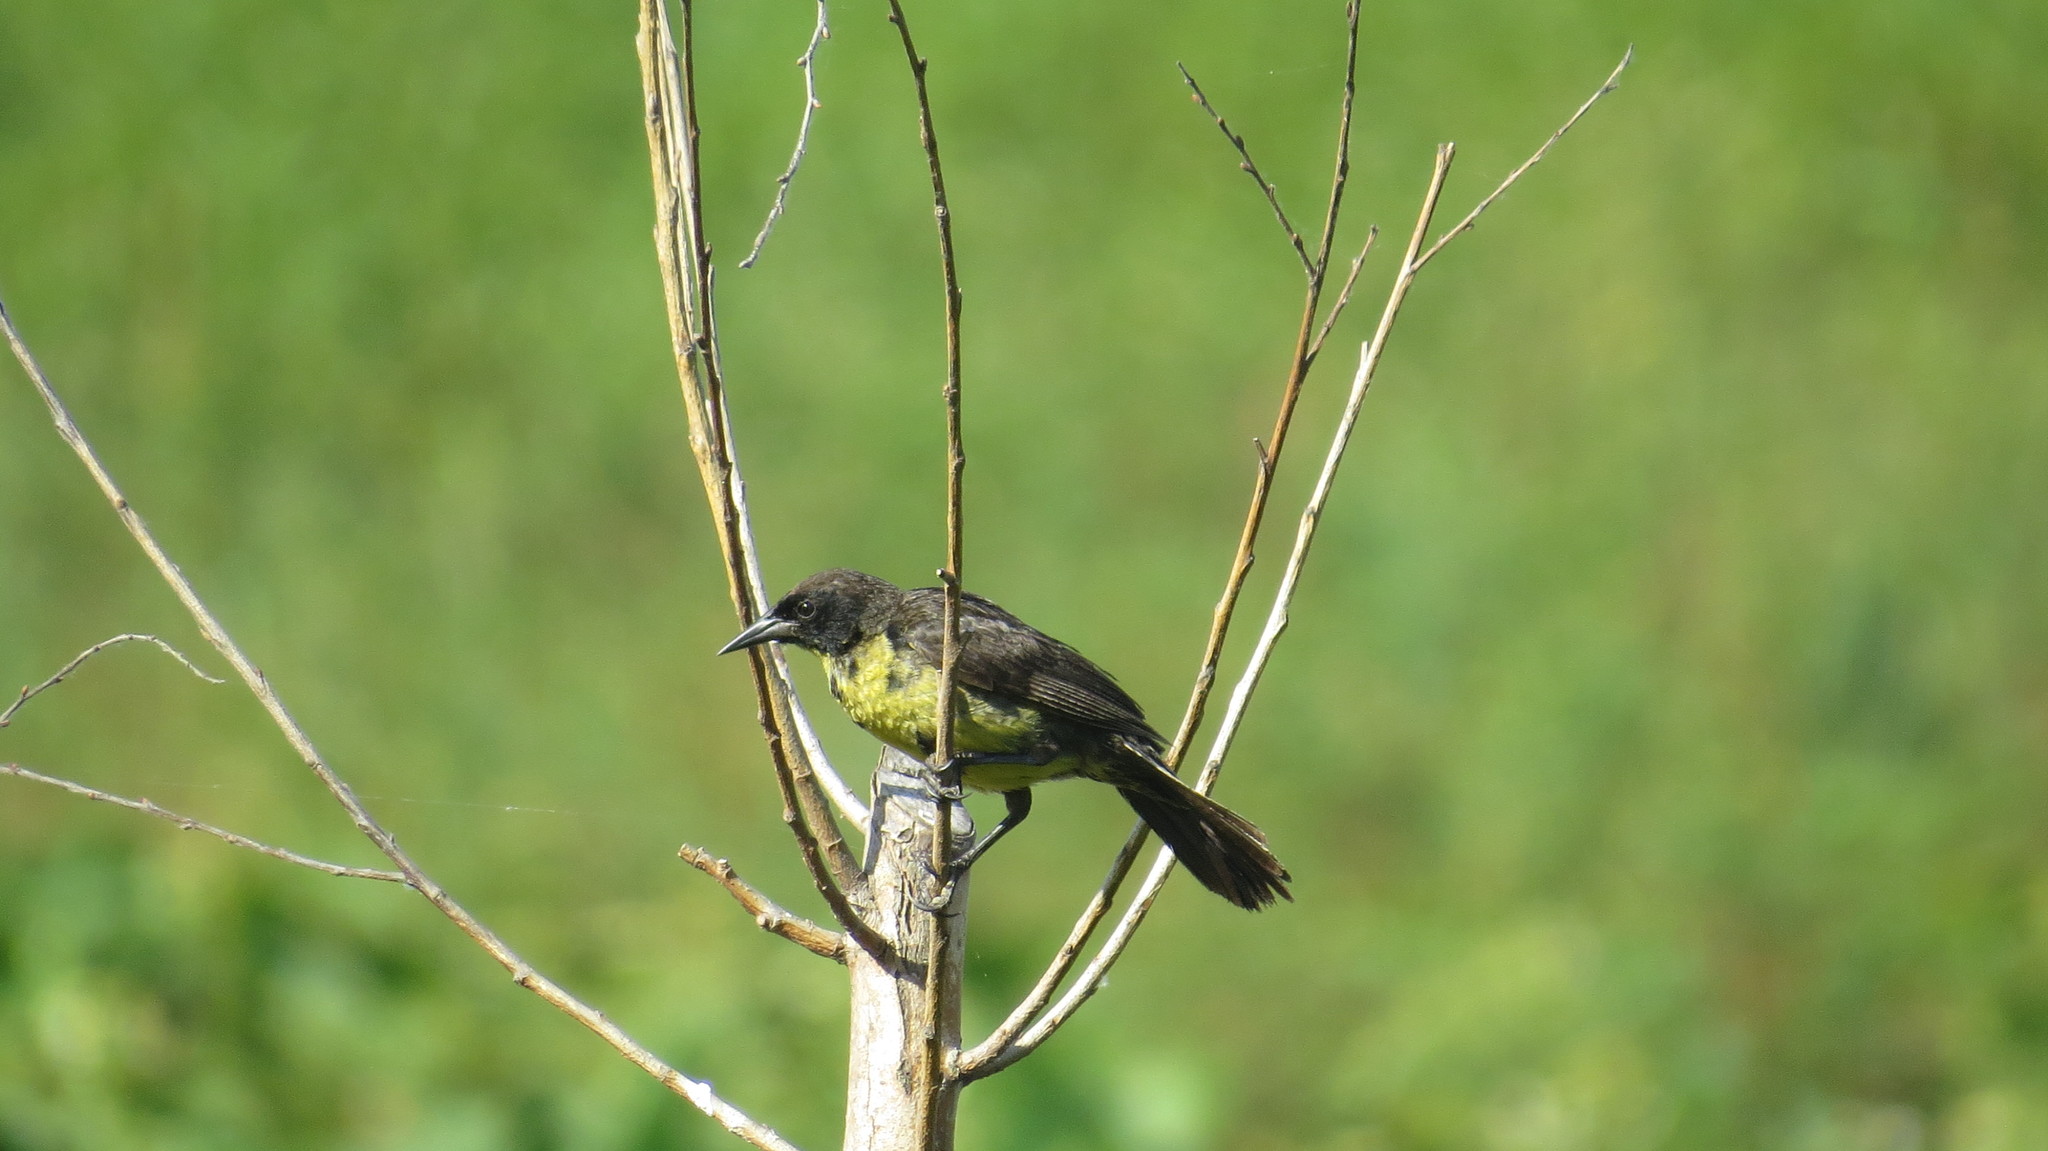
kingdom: Animalia
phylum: Chordata
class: Aves
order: Passeriformes
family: Icteridae
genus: Agelasticus
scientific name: Agelasticus cyanopus
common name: Unicolored blackbird
